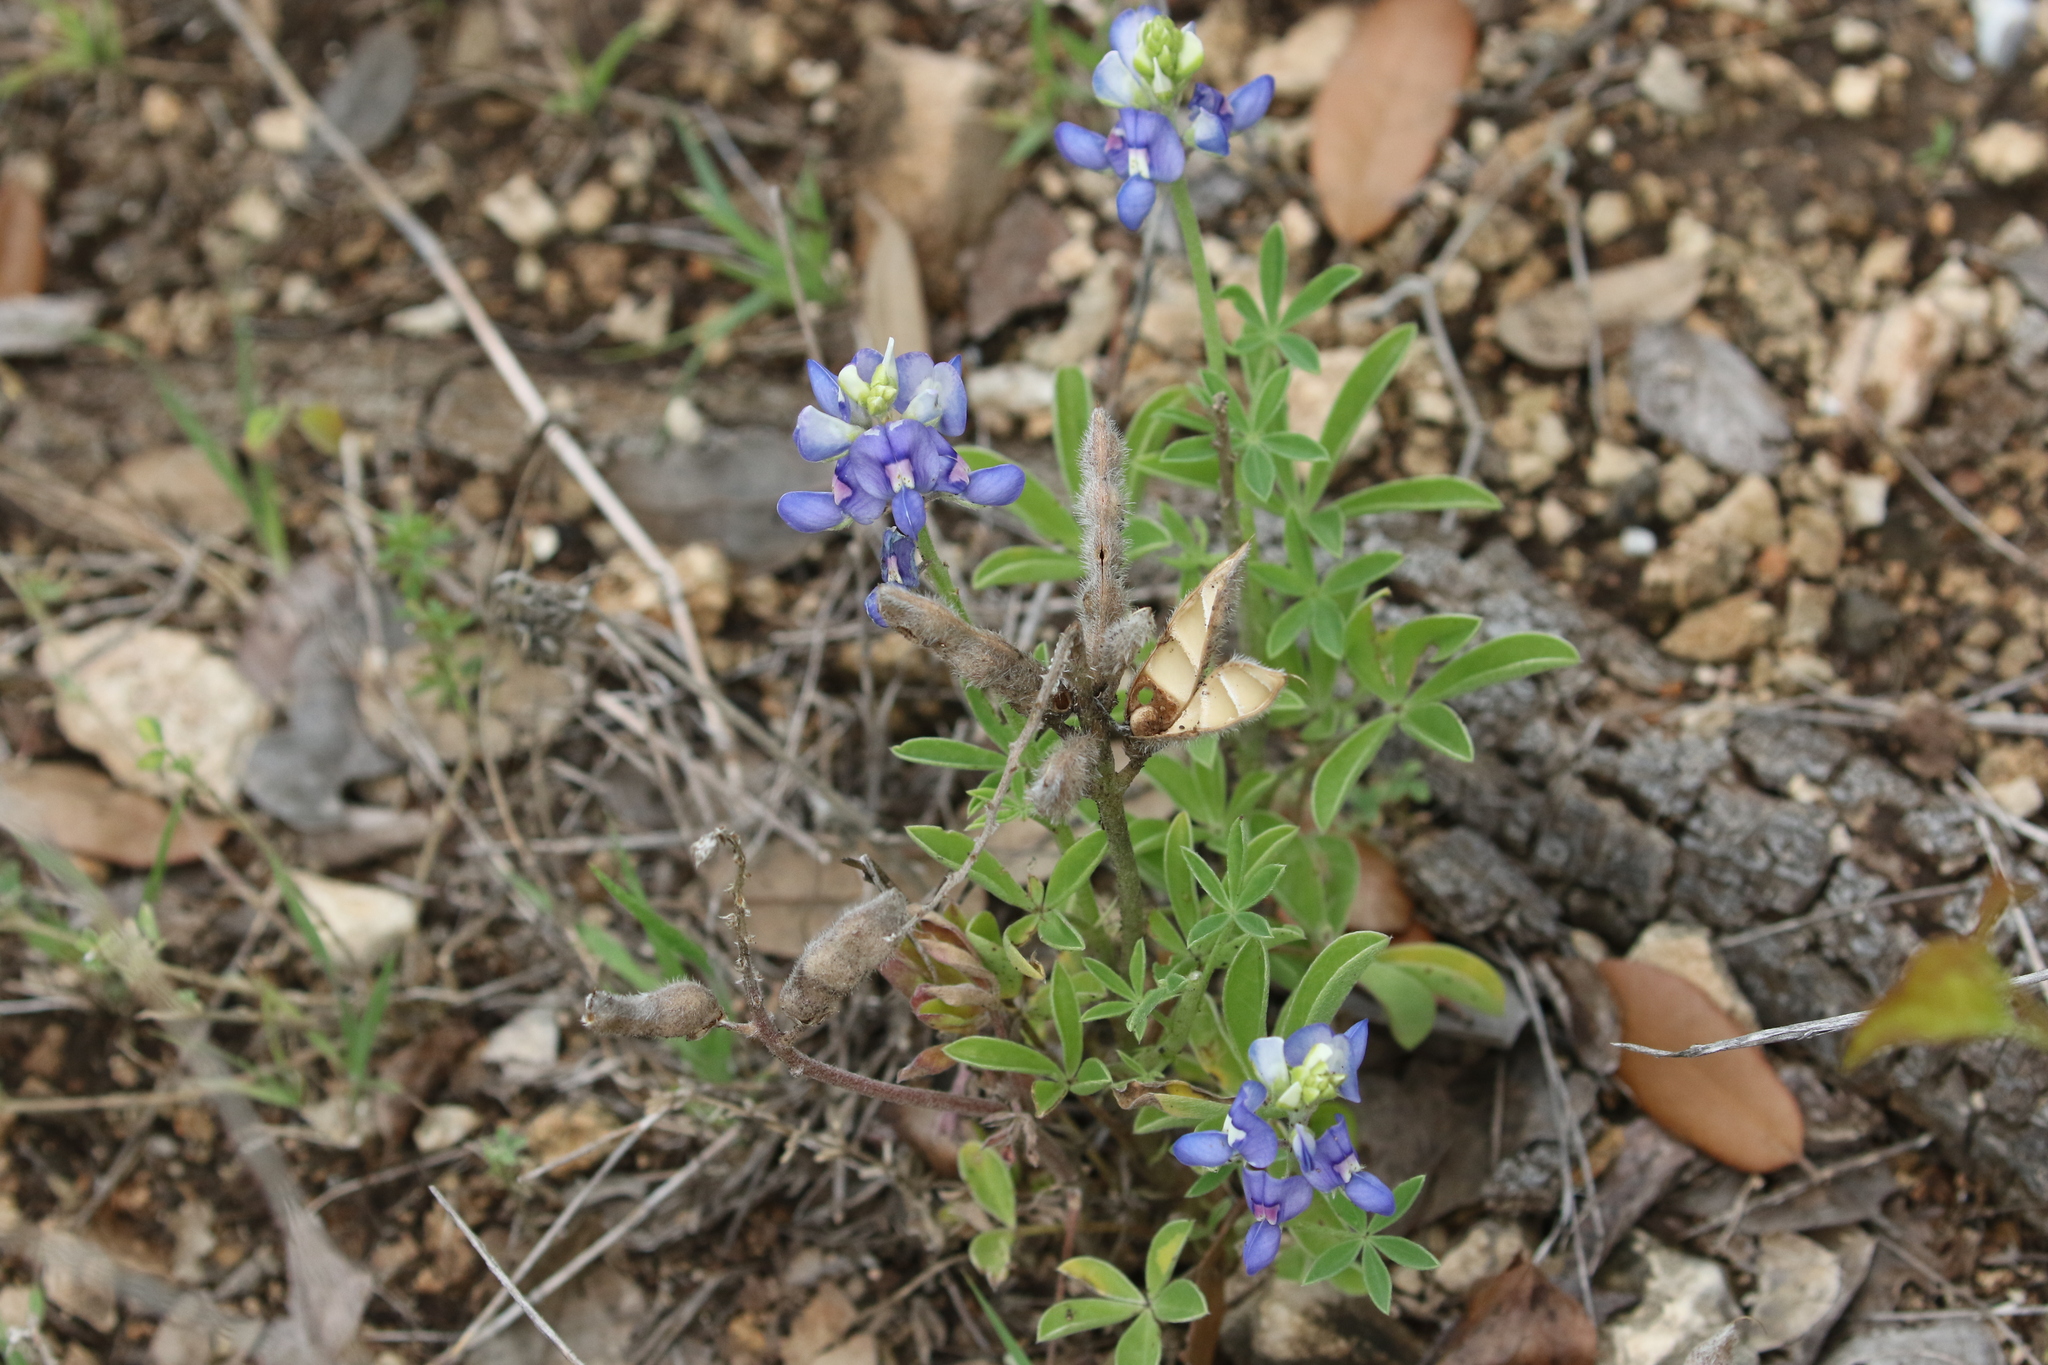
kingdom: Plantae
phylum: Tracheophyta
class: Magnoliopsida
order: Fabales
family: Fabaceae
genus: Lupinus
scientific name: Lupinus texensis
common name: Texas bluebonnet
